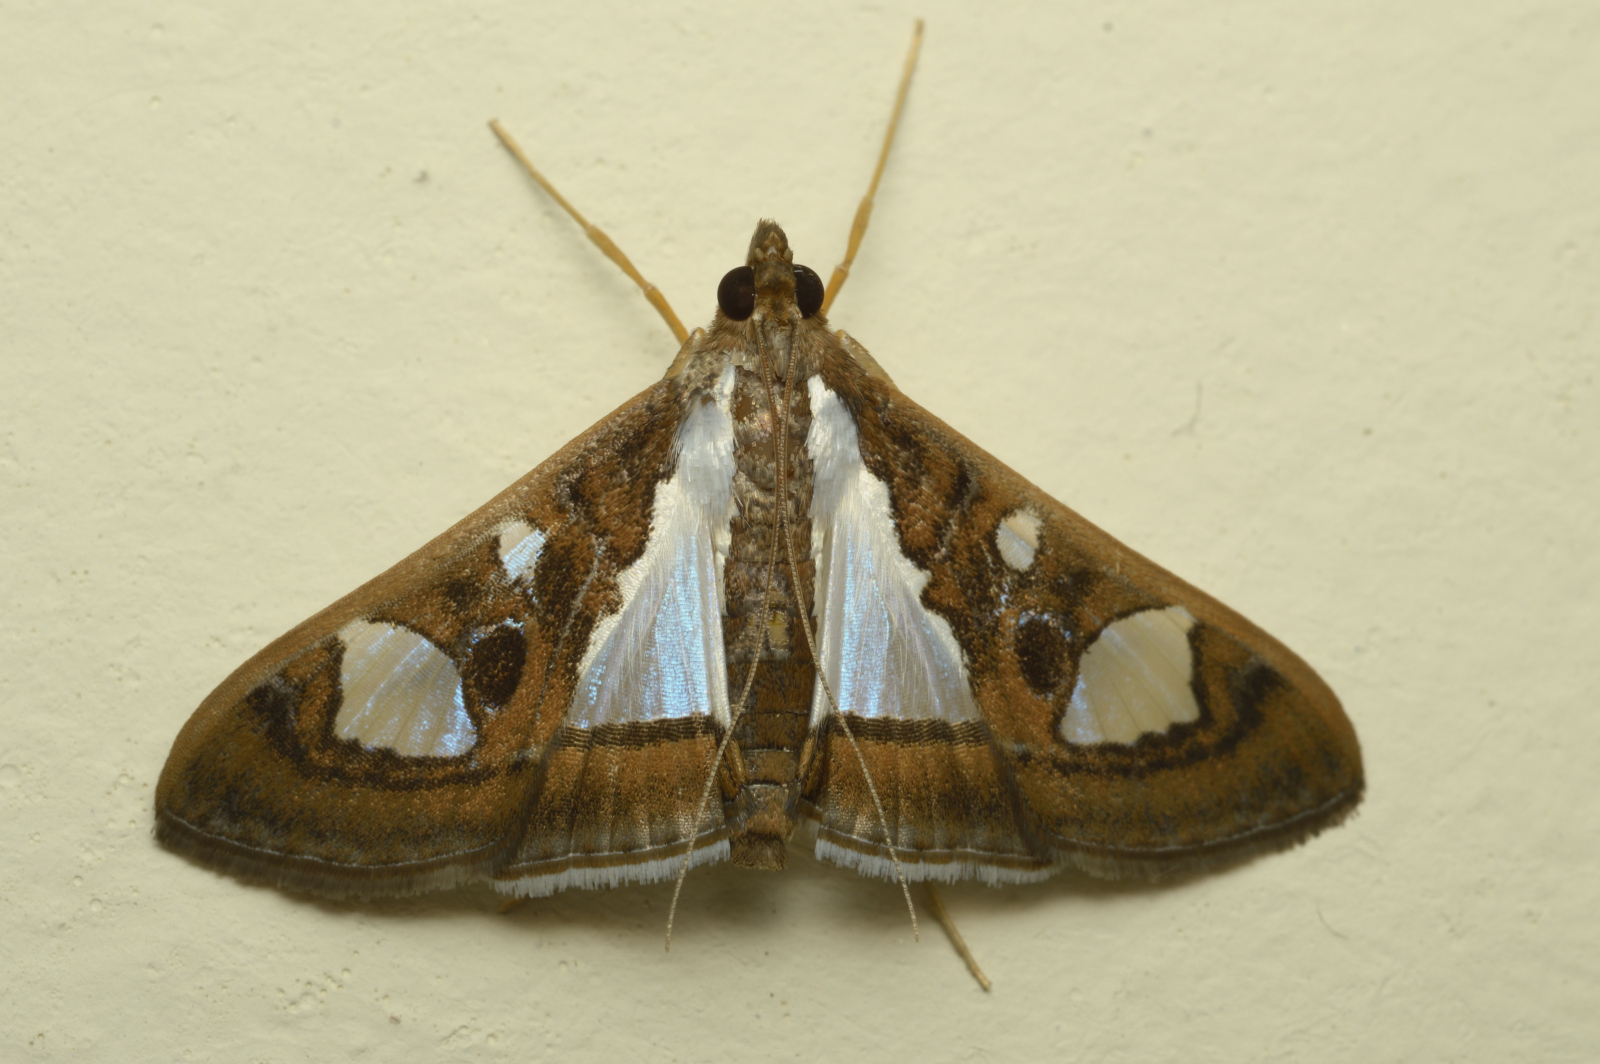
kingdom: Animalia
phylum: Arthropoda
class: Insecta
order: Lepidoptera
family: Crambidae
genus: Glyphodes
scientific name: Glyphodes bivitralis
